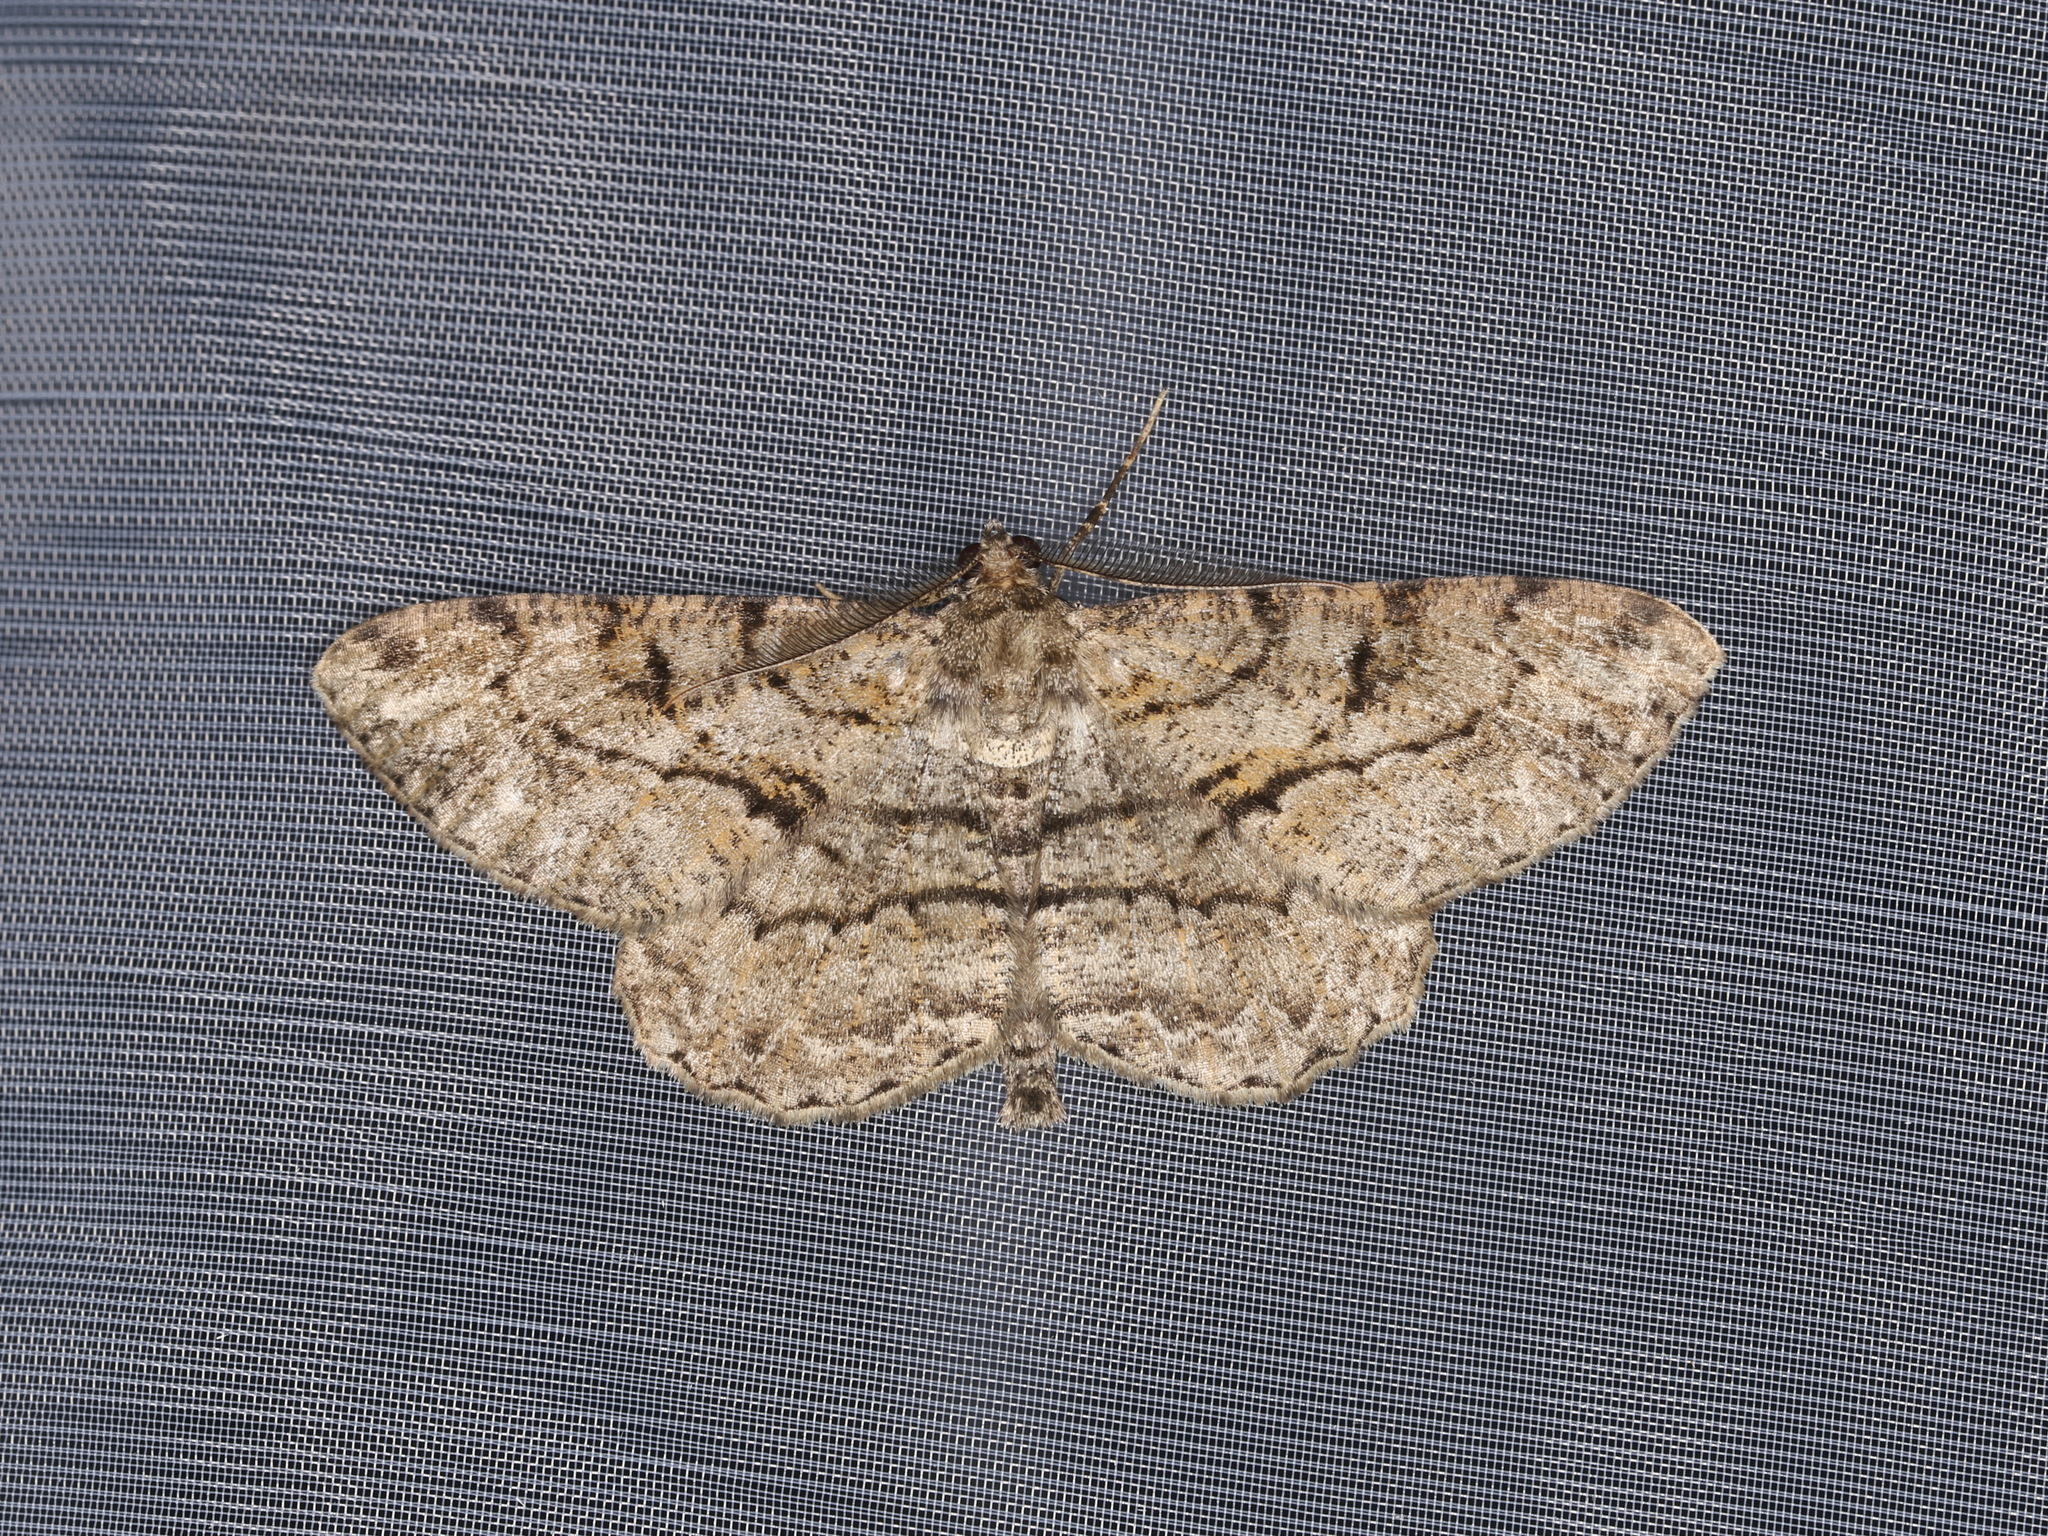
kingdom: Animalia
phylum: Arthropoda
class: Insecta
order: Lepidoptera
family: Geometridae
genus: Peribatodes
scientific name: Peribatodes rhomboidaria
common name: Willow beauty
